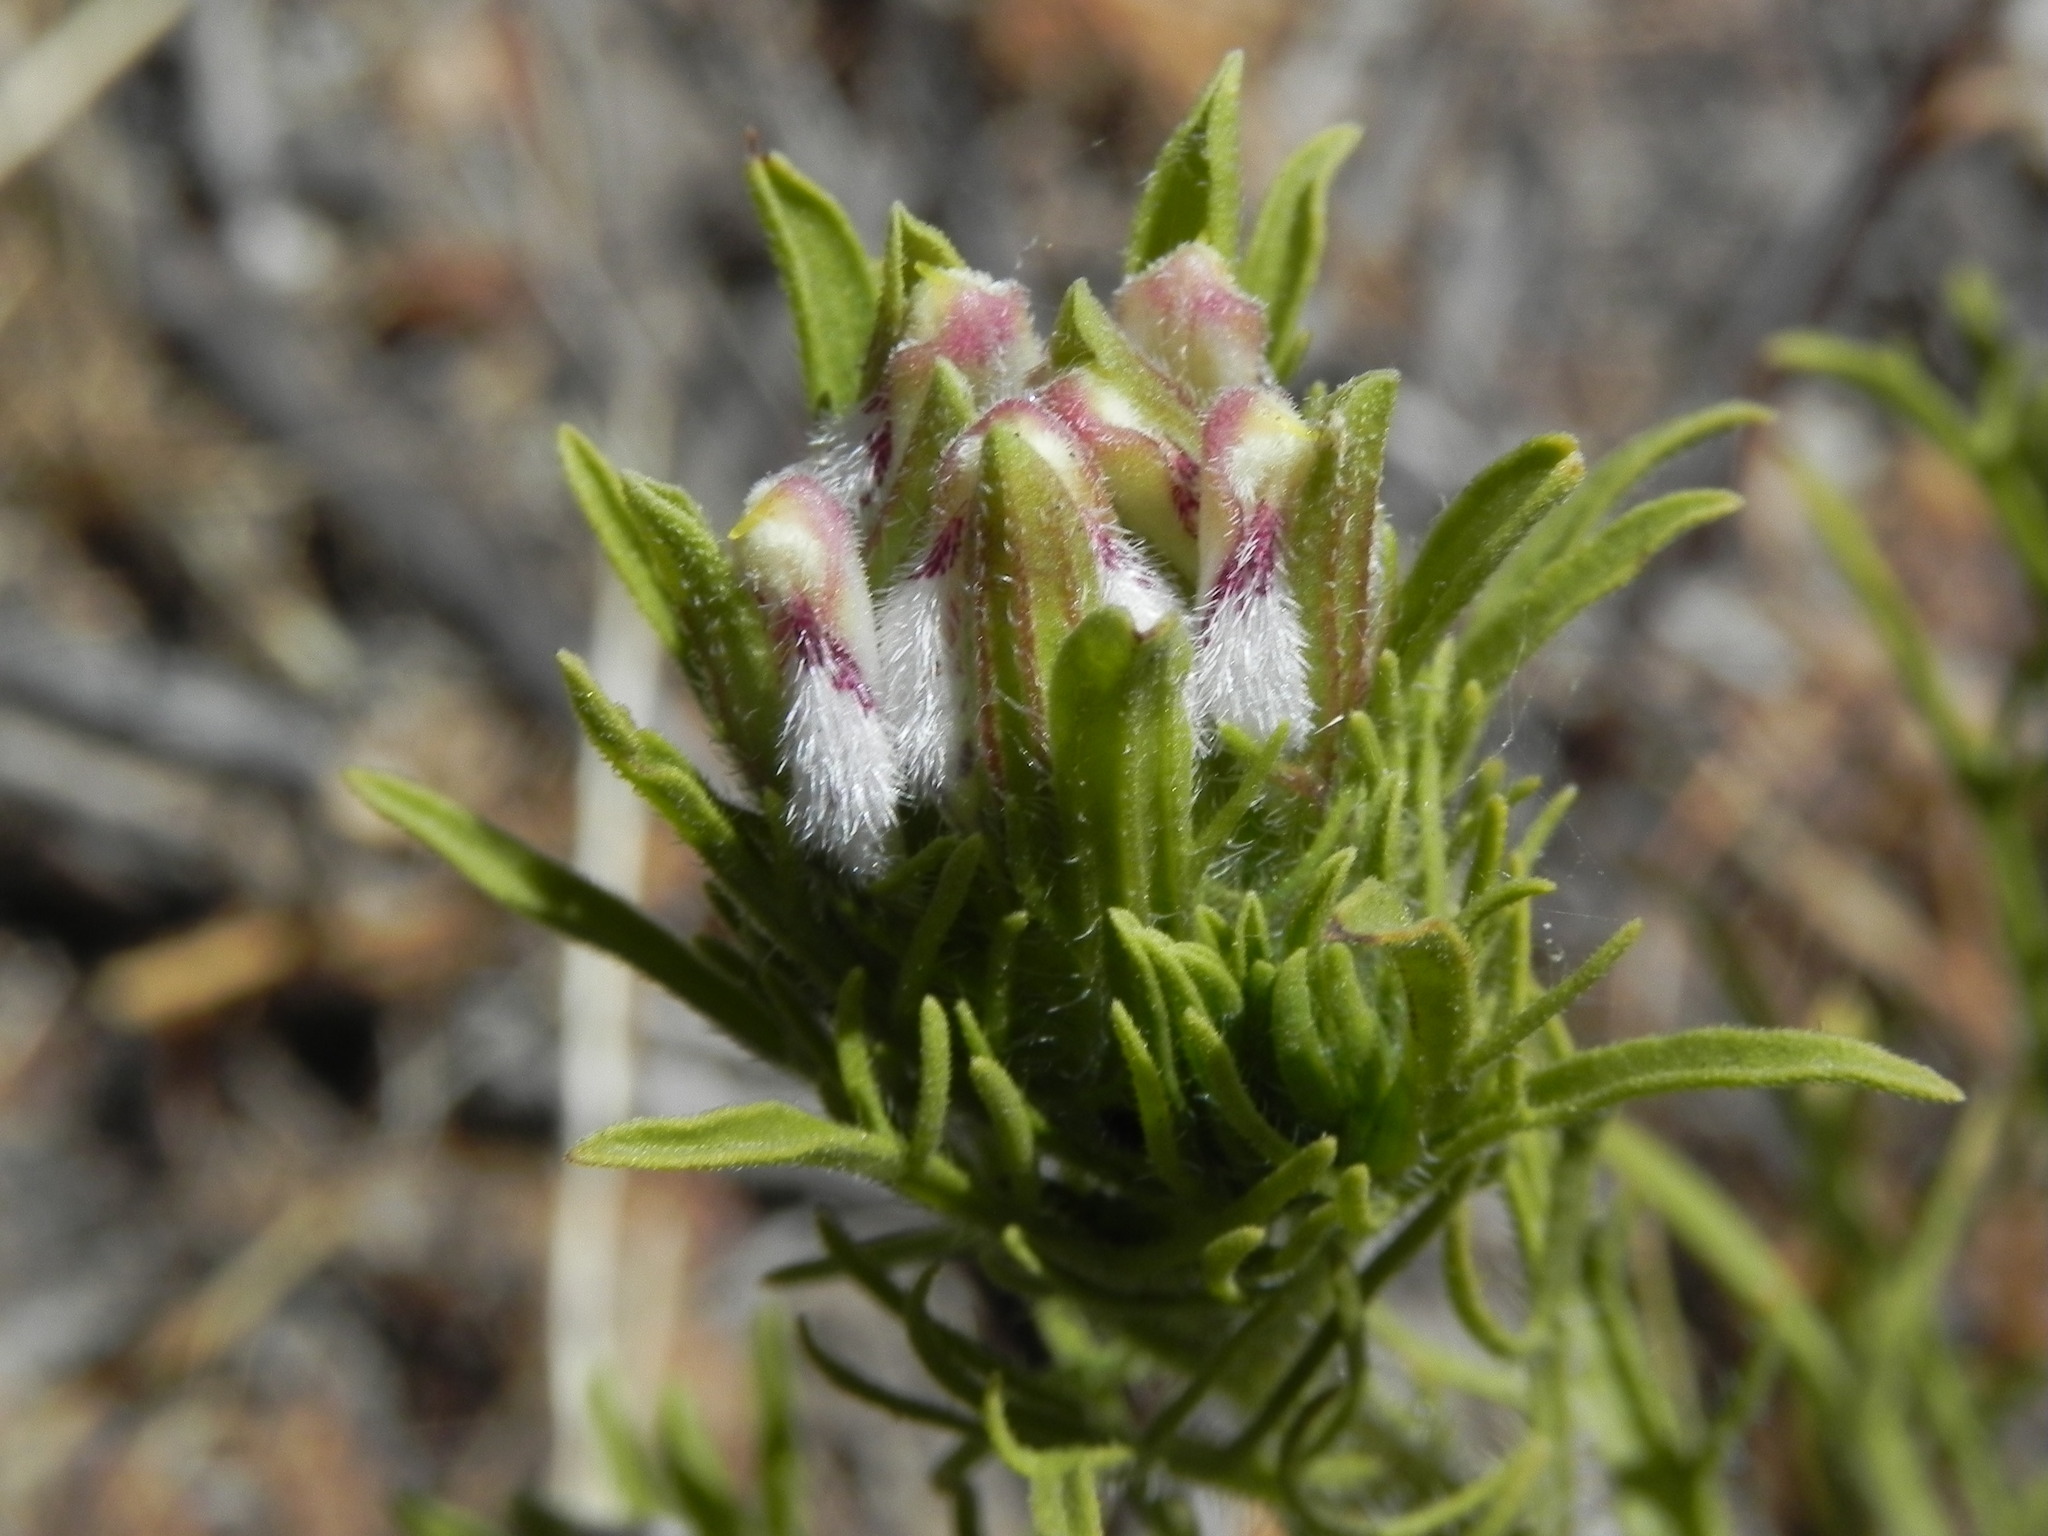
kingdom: Plantae
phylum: Tracheophyta
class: Magnoliopsida
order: Lamiales
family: Orobanchaceae
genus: Dicranostegia
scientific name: Dicranostegia orcuttiana
